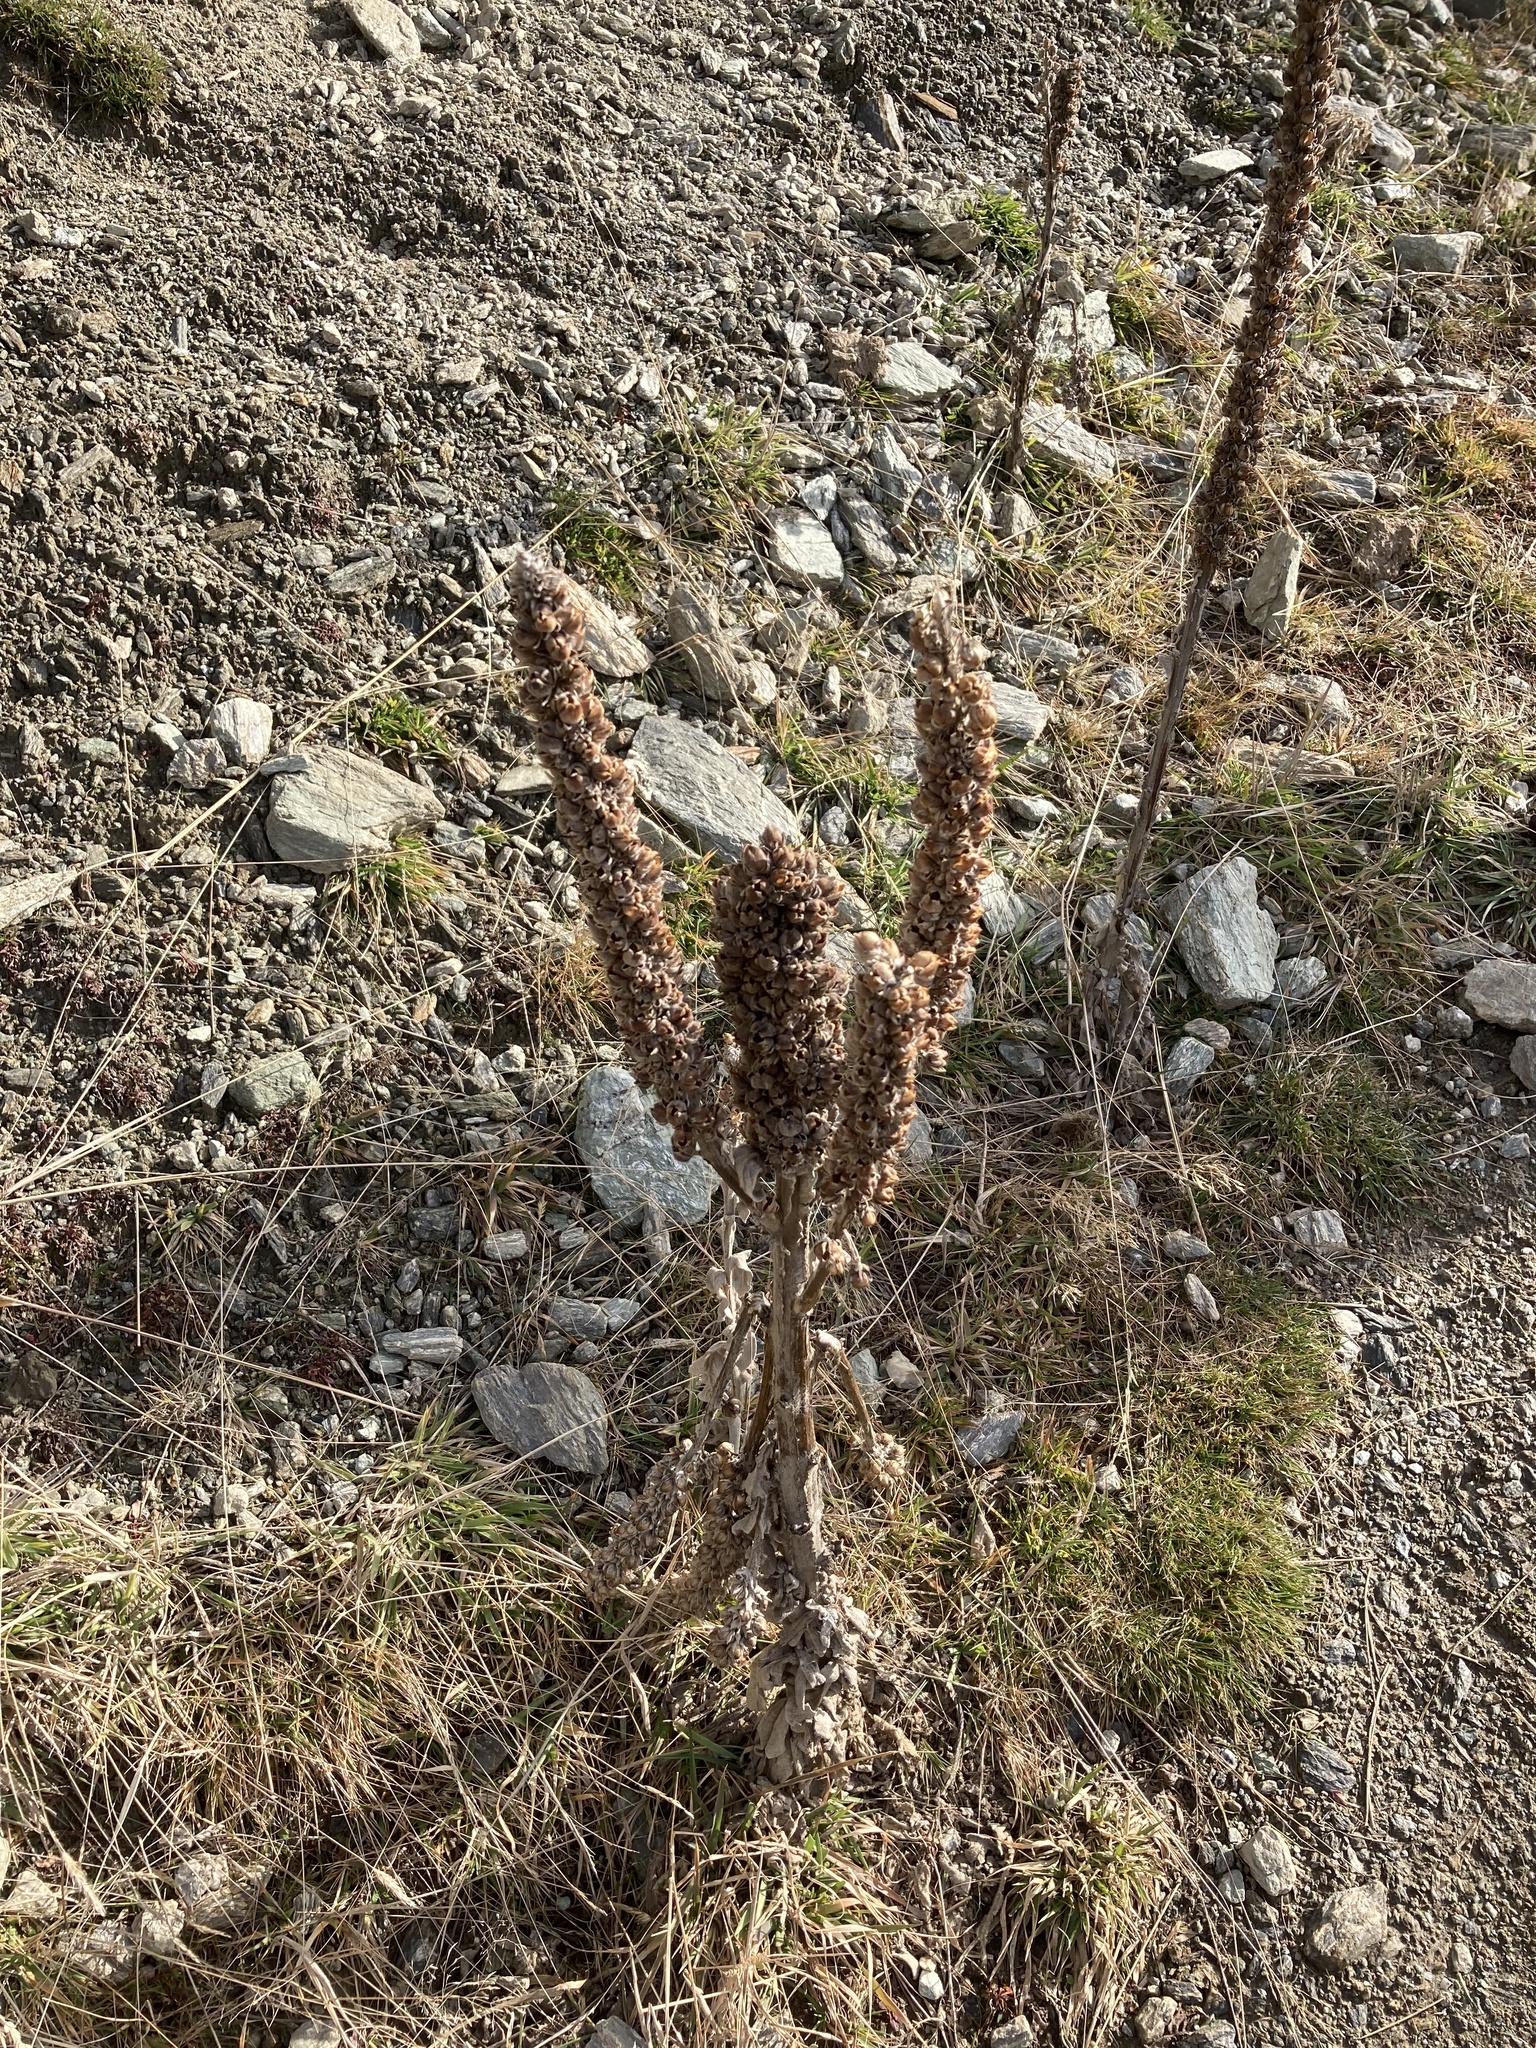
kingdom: Plantae
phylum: Tracheophyta
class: Magnoliopsida
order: Lamiales
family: Scrophulariaceae
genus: Verbascum
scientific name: Verbascum thapsus
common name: Common mullein
